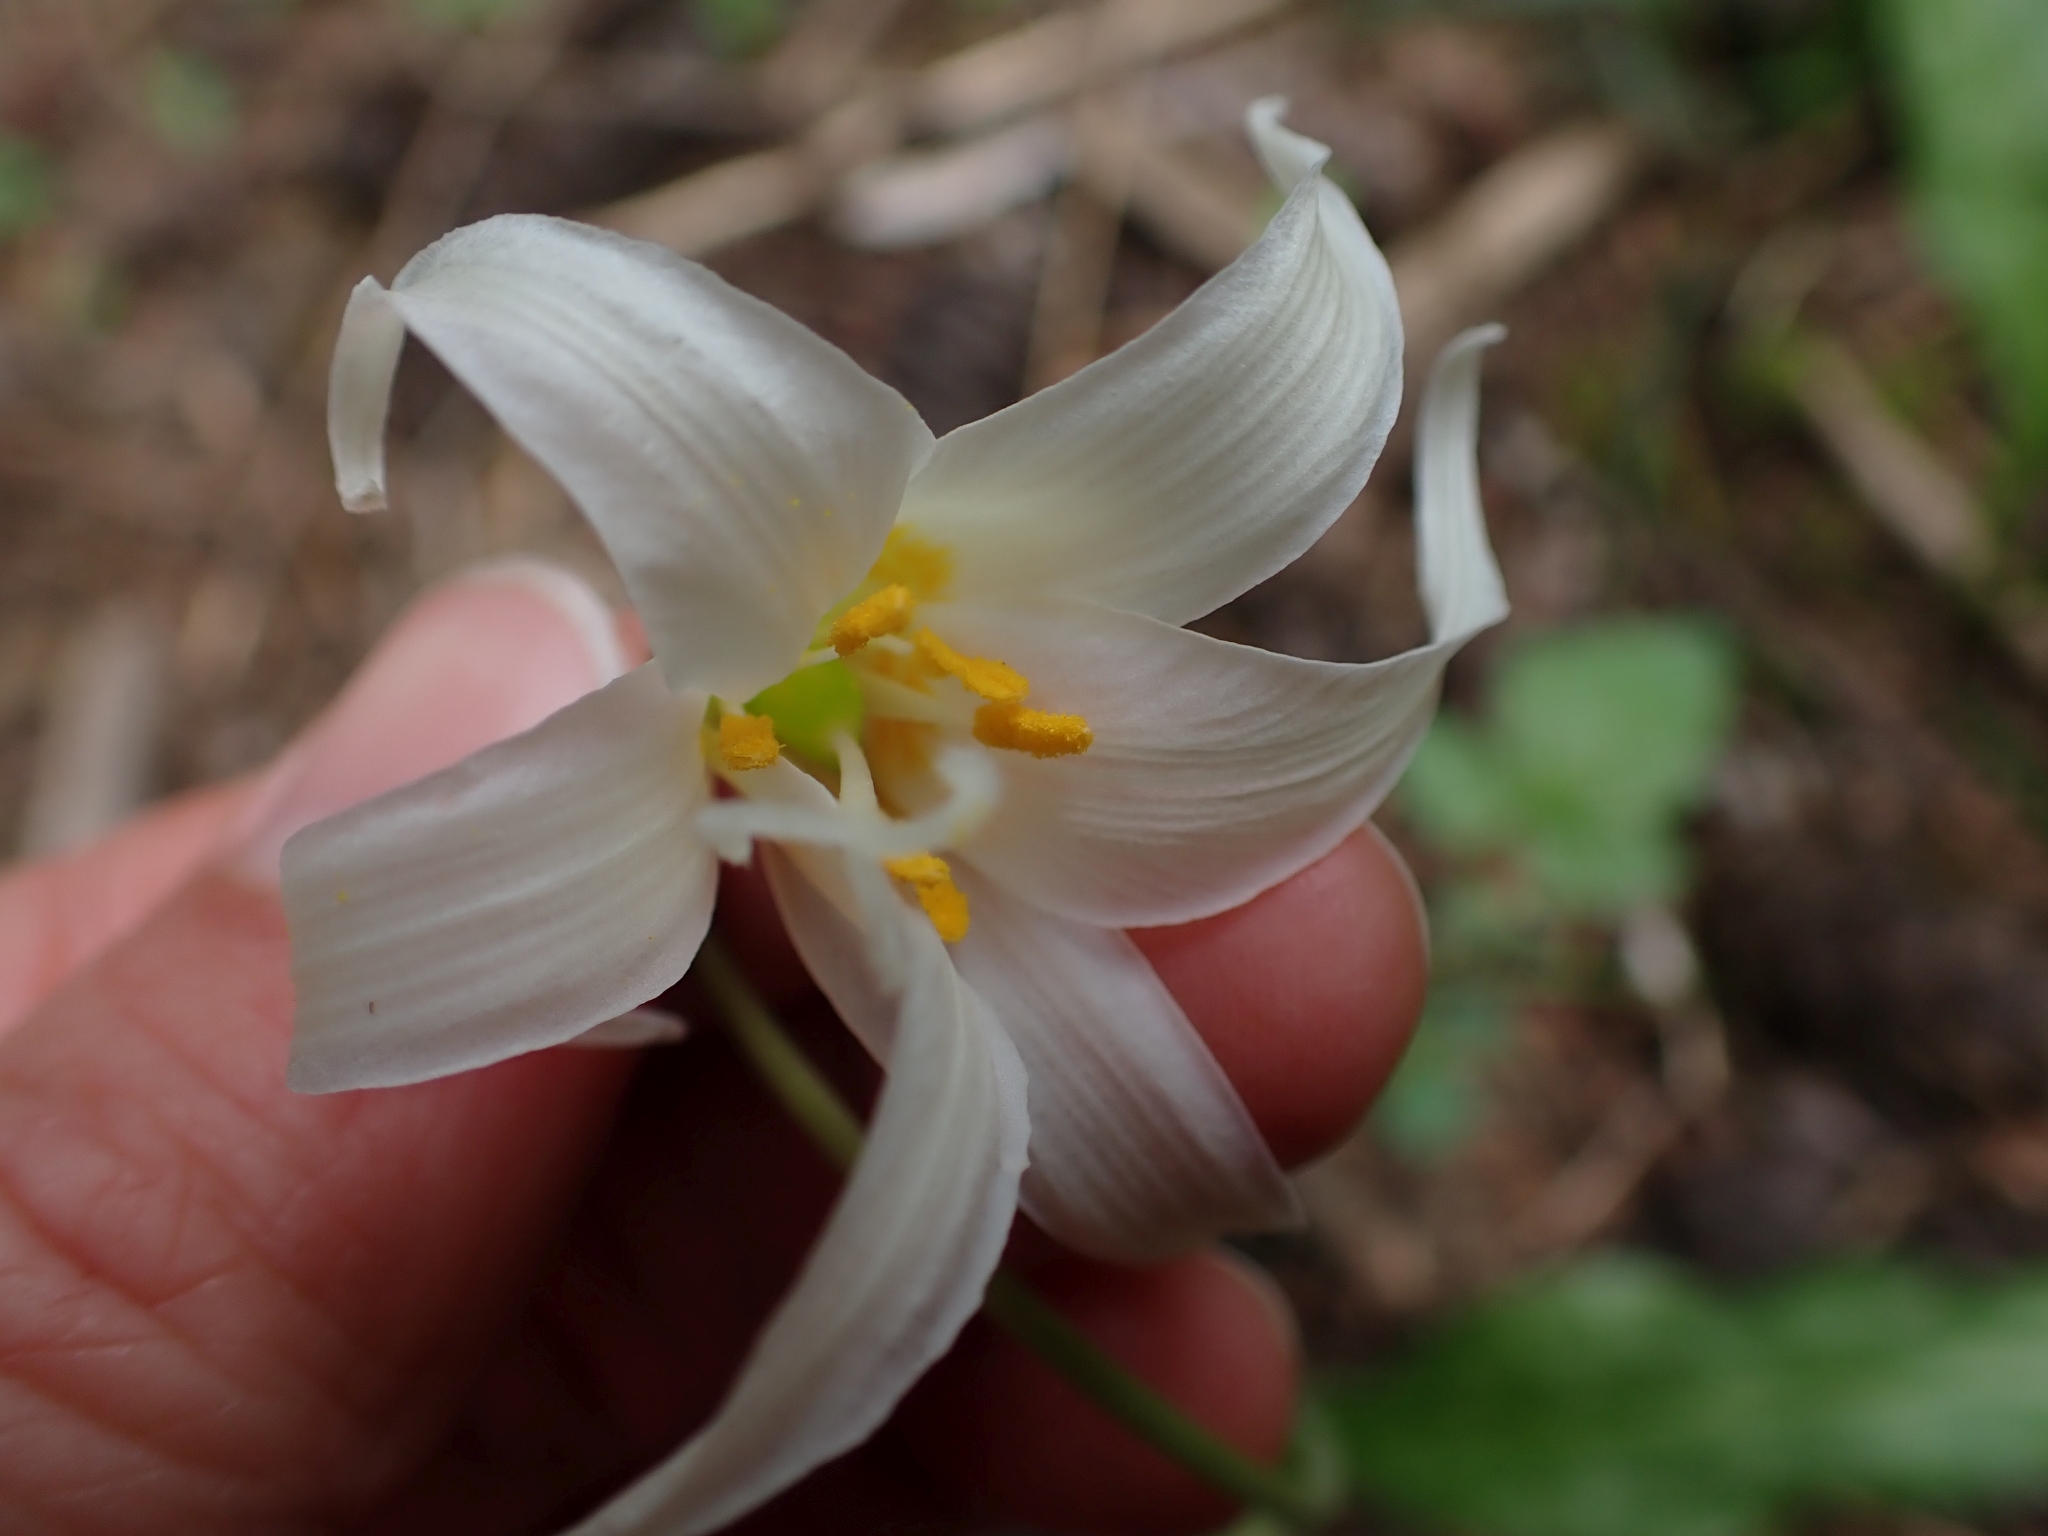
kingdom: Plantae
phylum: Tracheophyta
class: Liliopsida
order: Liliales
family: Liliaceae
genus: Erythronium
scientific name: Erythronium oregonum
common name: Giant adder's-tongue
